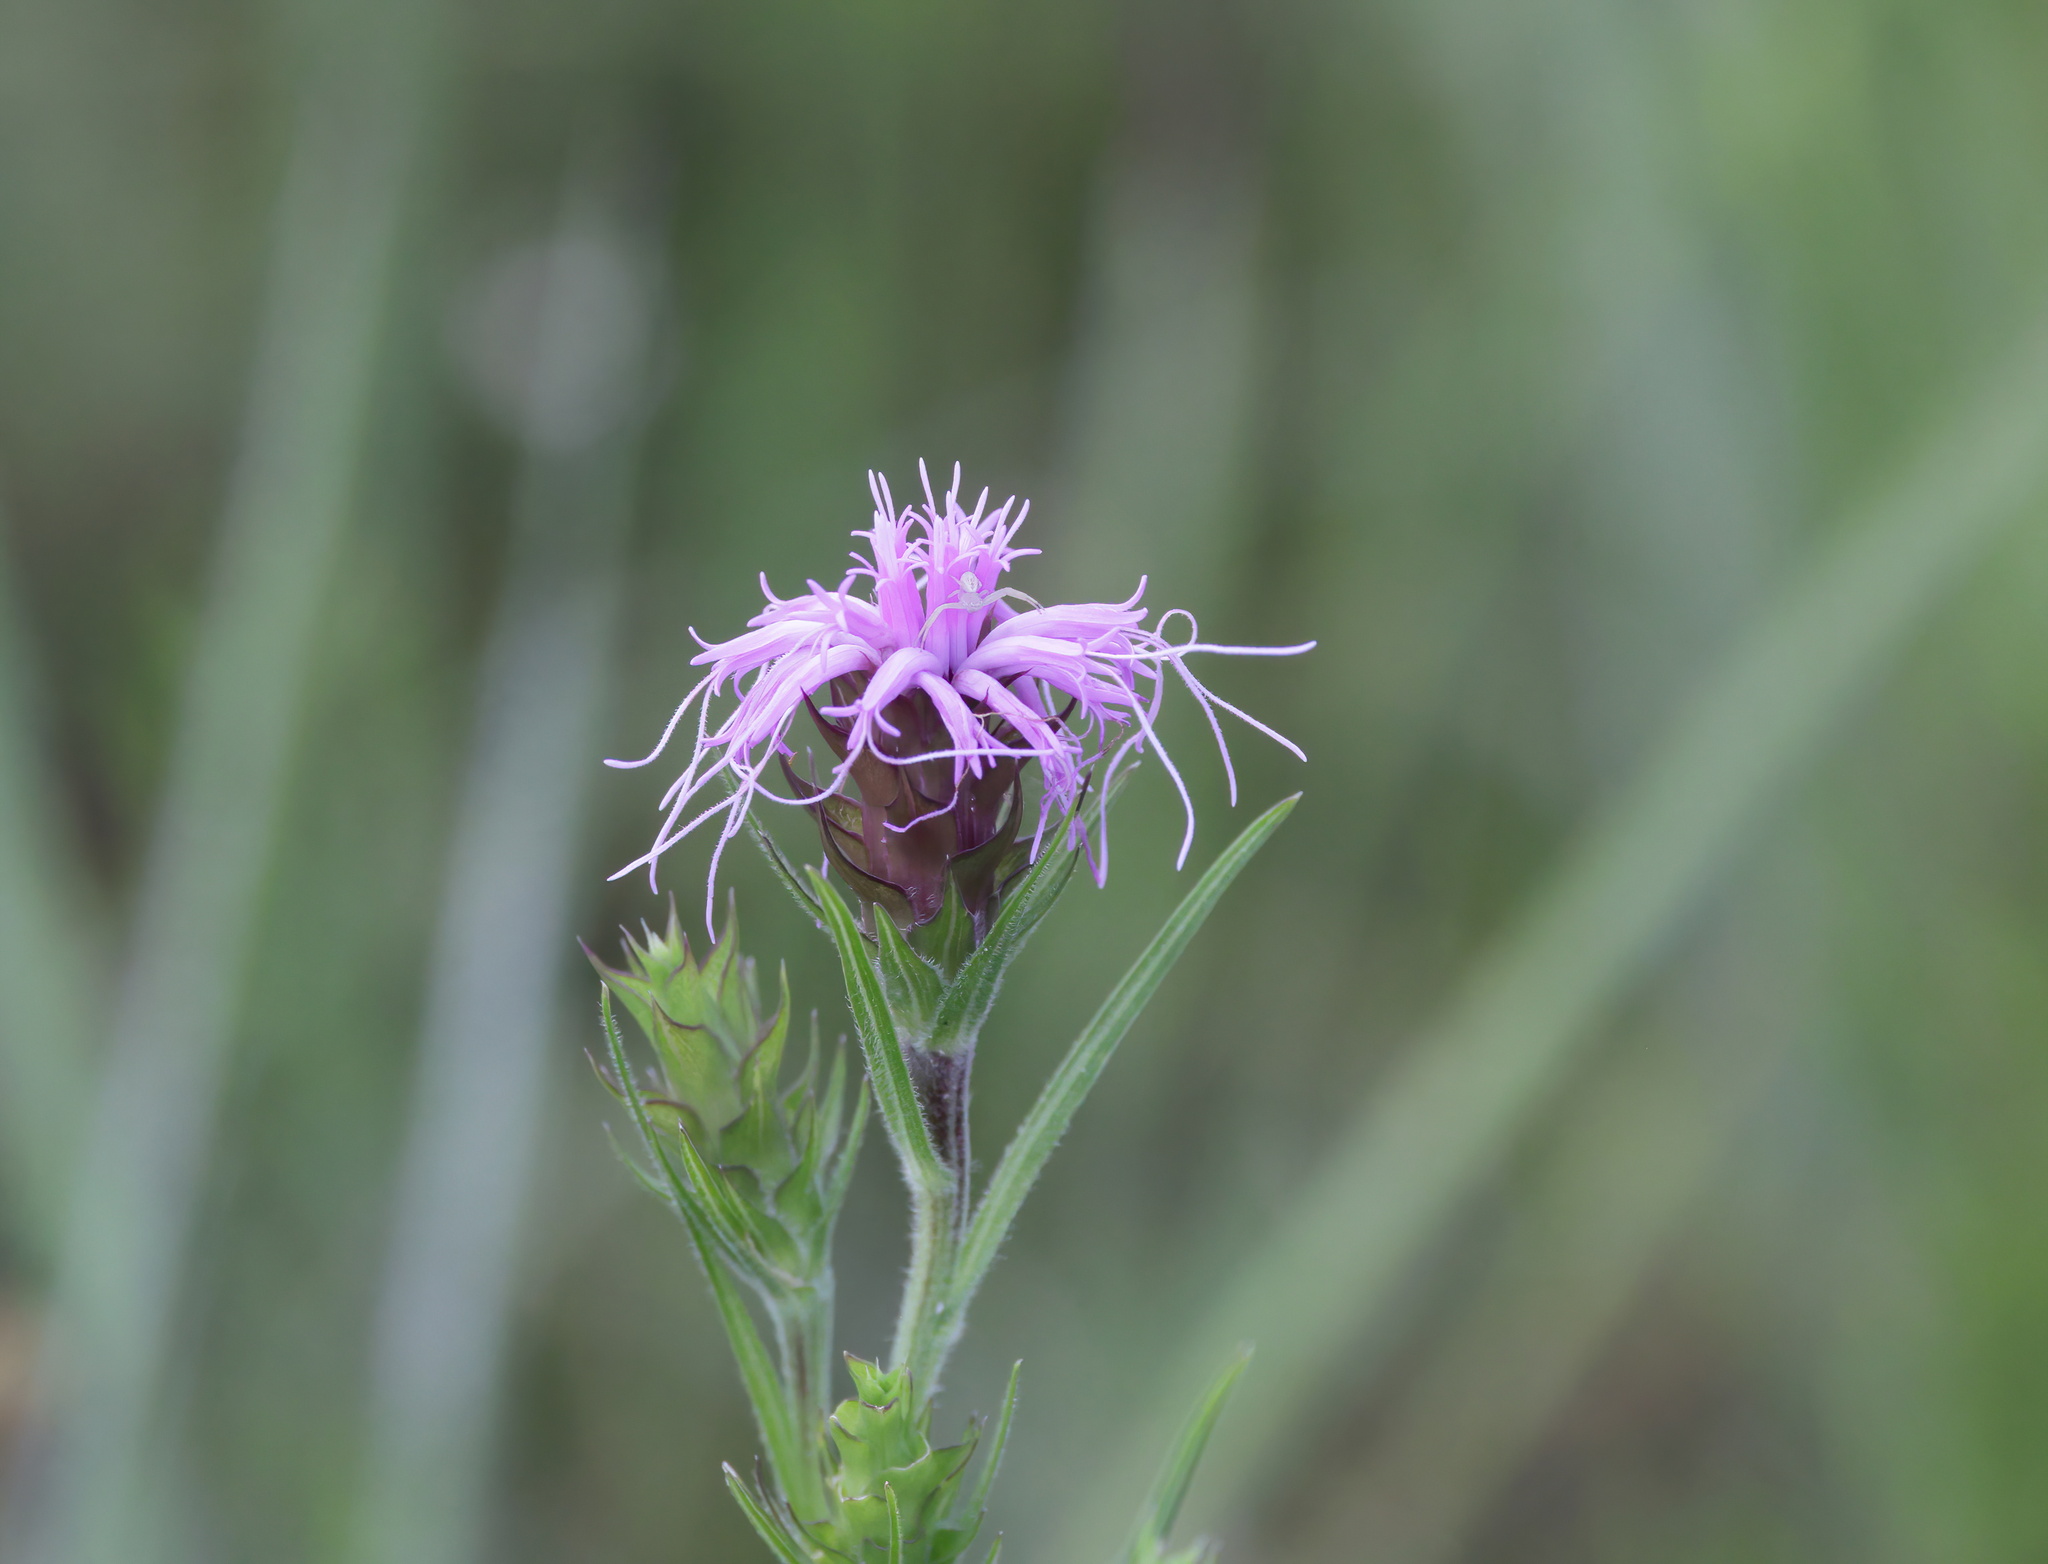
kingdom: Plantae
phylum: Tracheophyta
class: Magnoliopsida
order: Asterales
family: Asteraceae
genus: Liatris
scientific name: Liatris squarrosa
